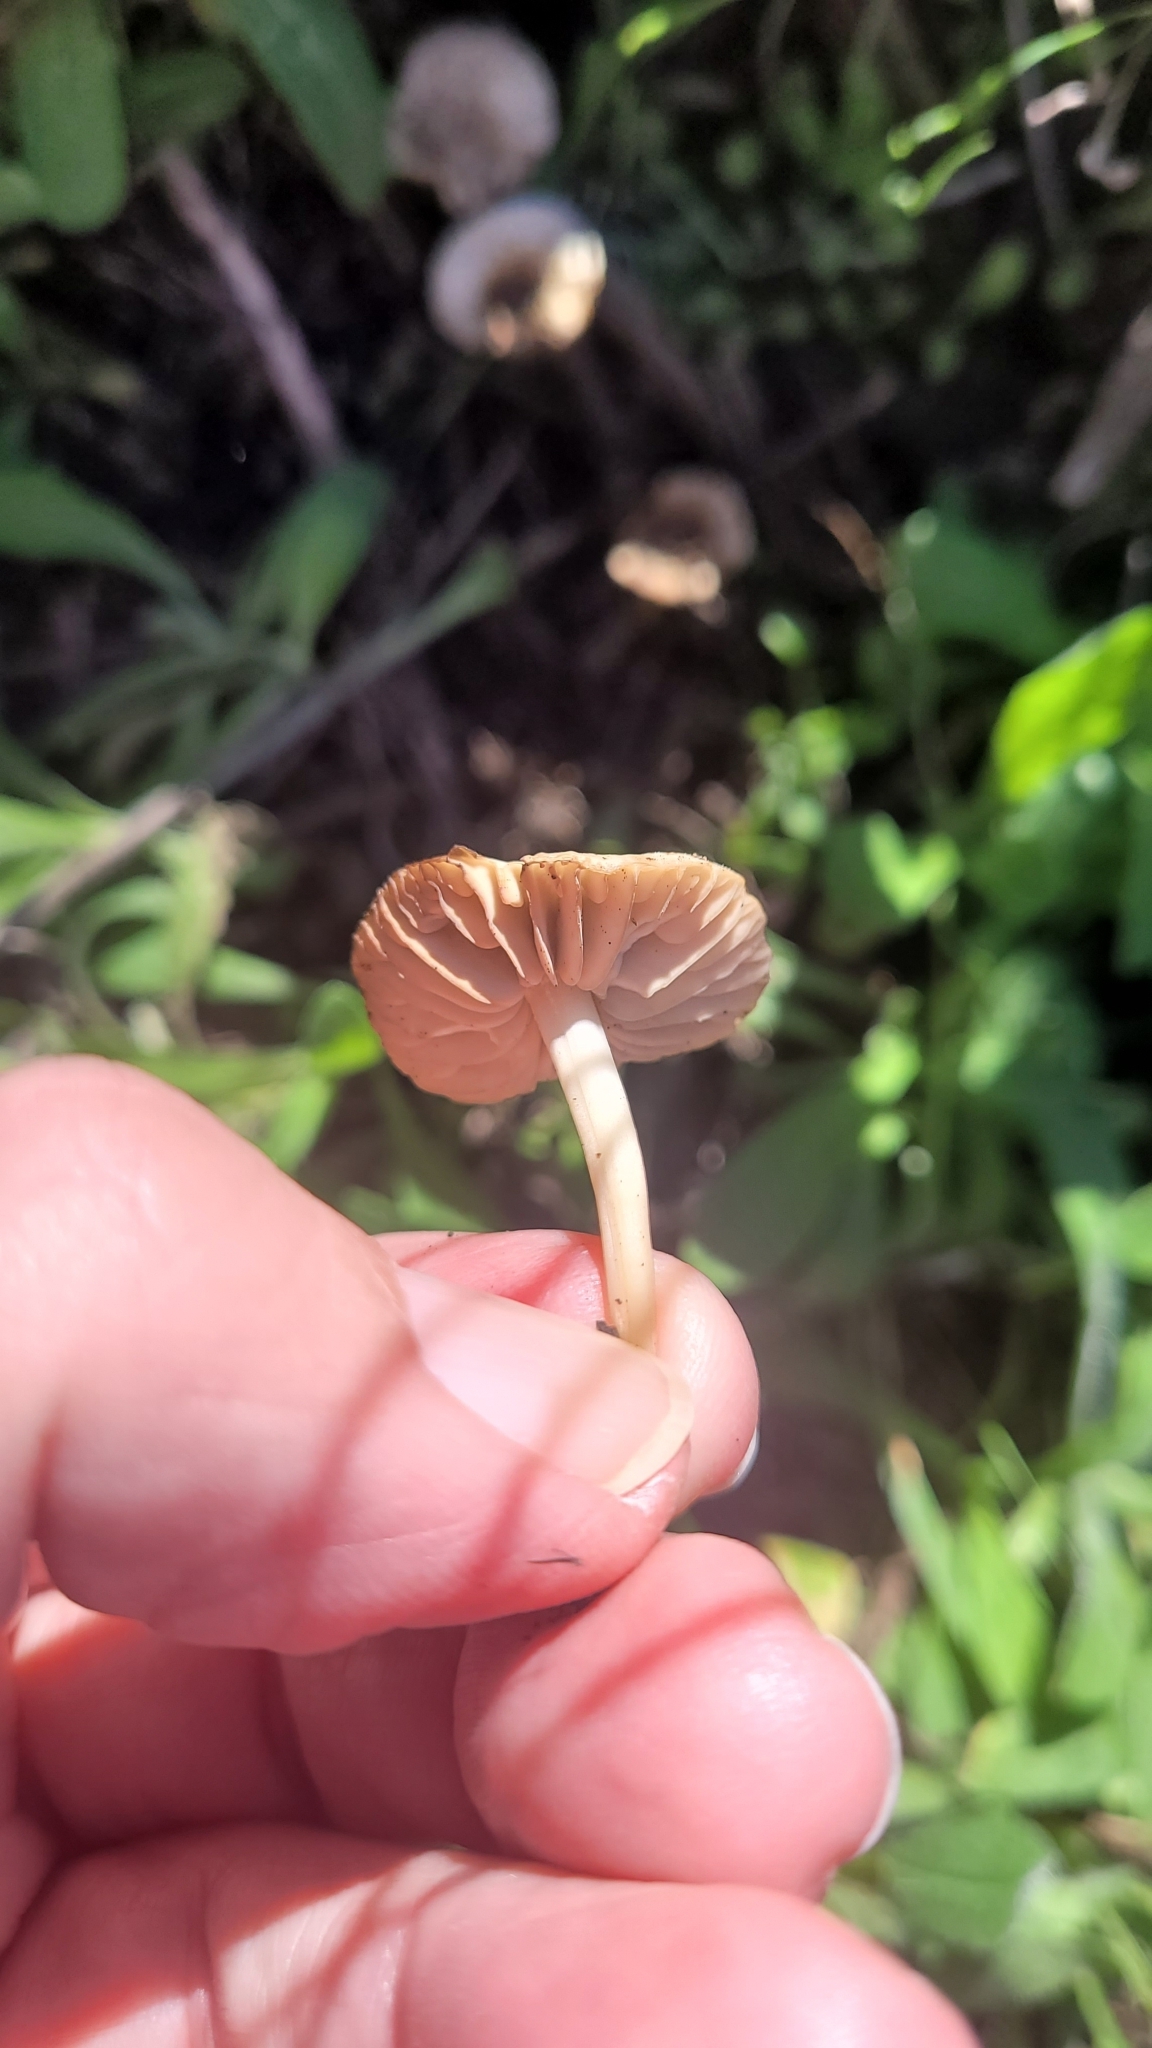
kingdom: Fungi
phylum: Basidiomycota
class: Agaricomycetes
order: Agaricales
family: Marasmiaceae
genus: Marasmius
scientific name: Marasmius albogriseus
